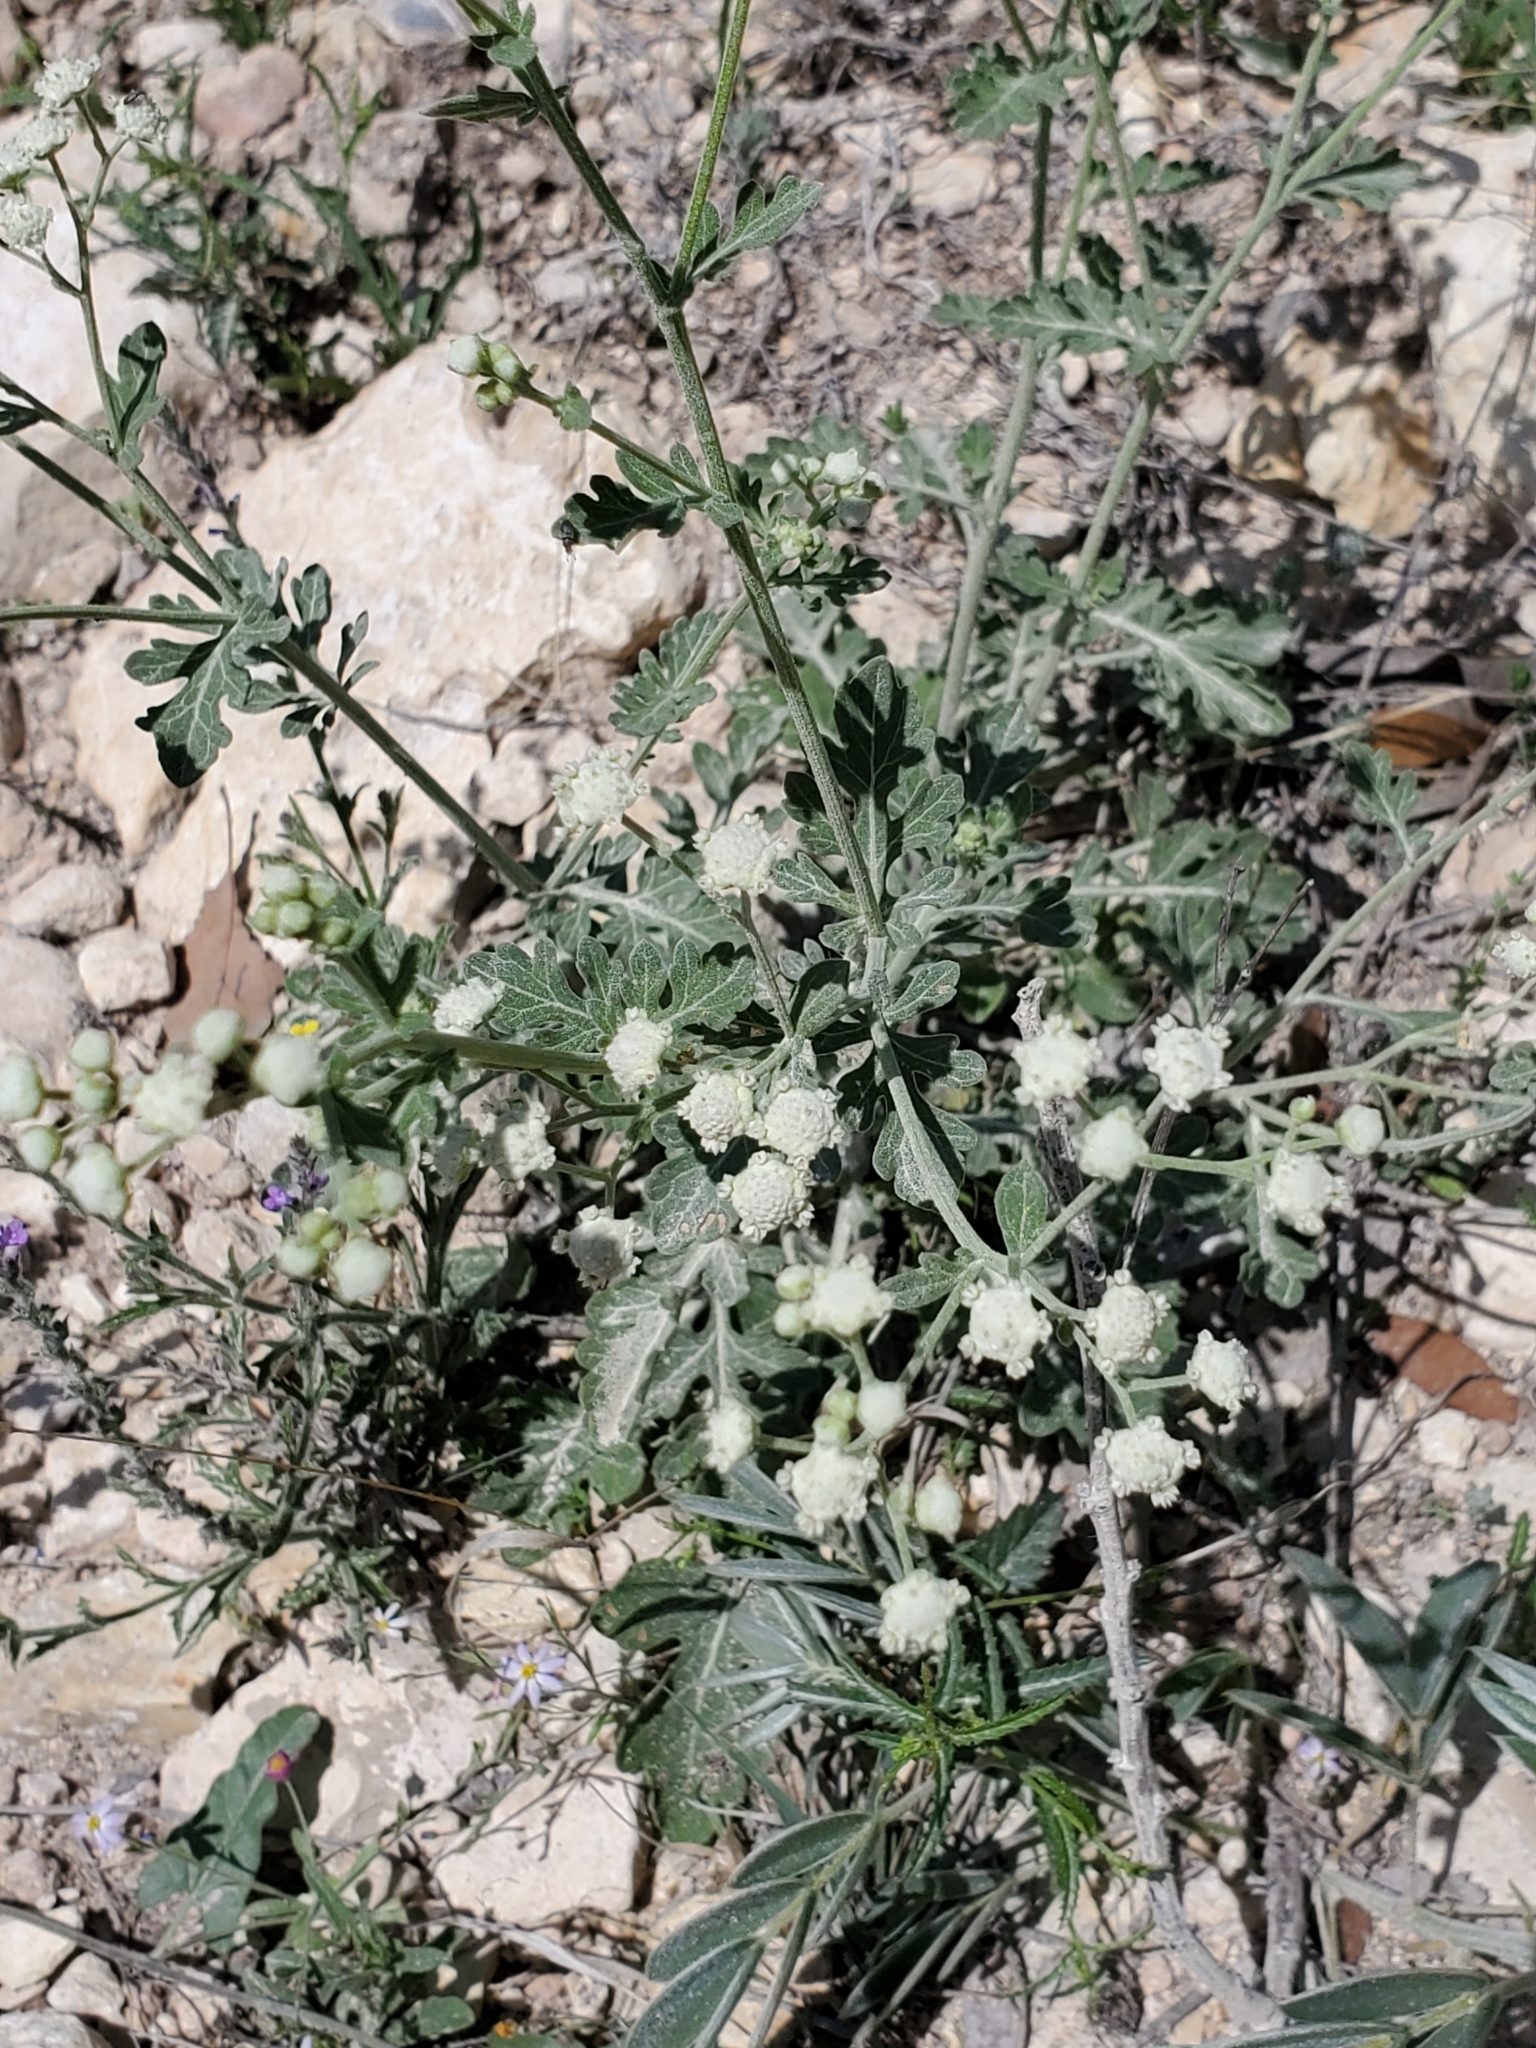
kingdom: Plantae
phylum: Tracheophyta
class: Magnoliopsida
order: Asterales
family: Asteraceae
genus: Parthenium
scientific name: Parthenium confertum
